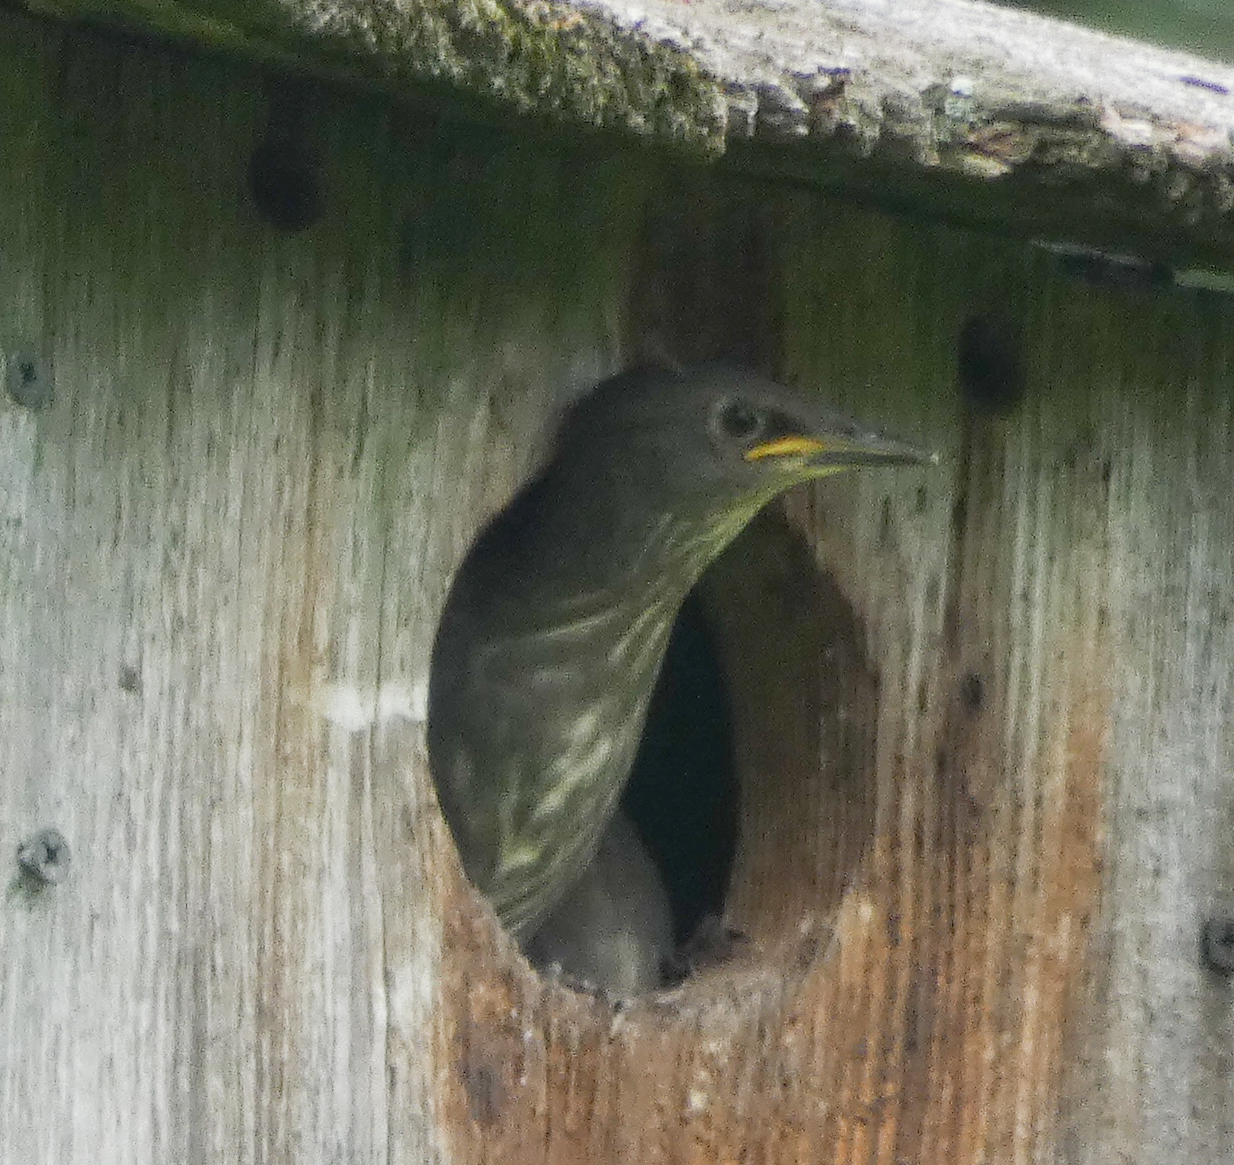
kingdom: Animalia
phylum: Chordata
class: Aves
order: Passeriformes
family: Sturnidae
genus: Sturnus
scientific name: Sturnus vulgaris
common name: Common starling
